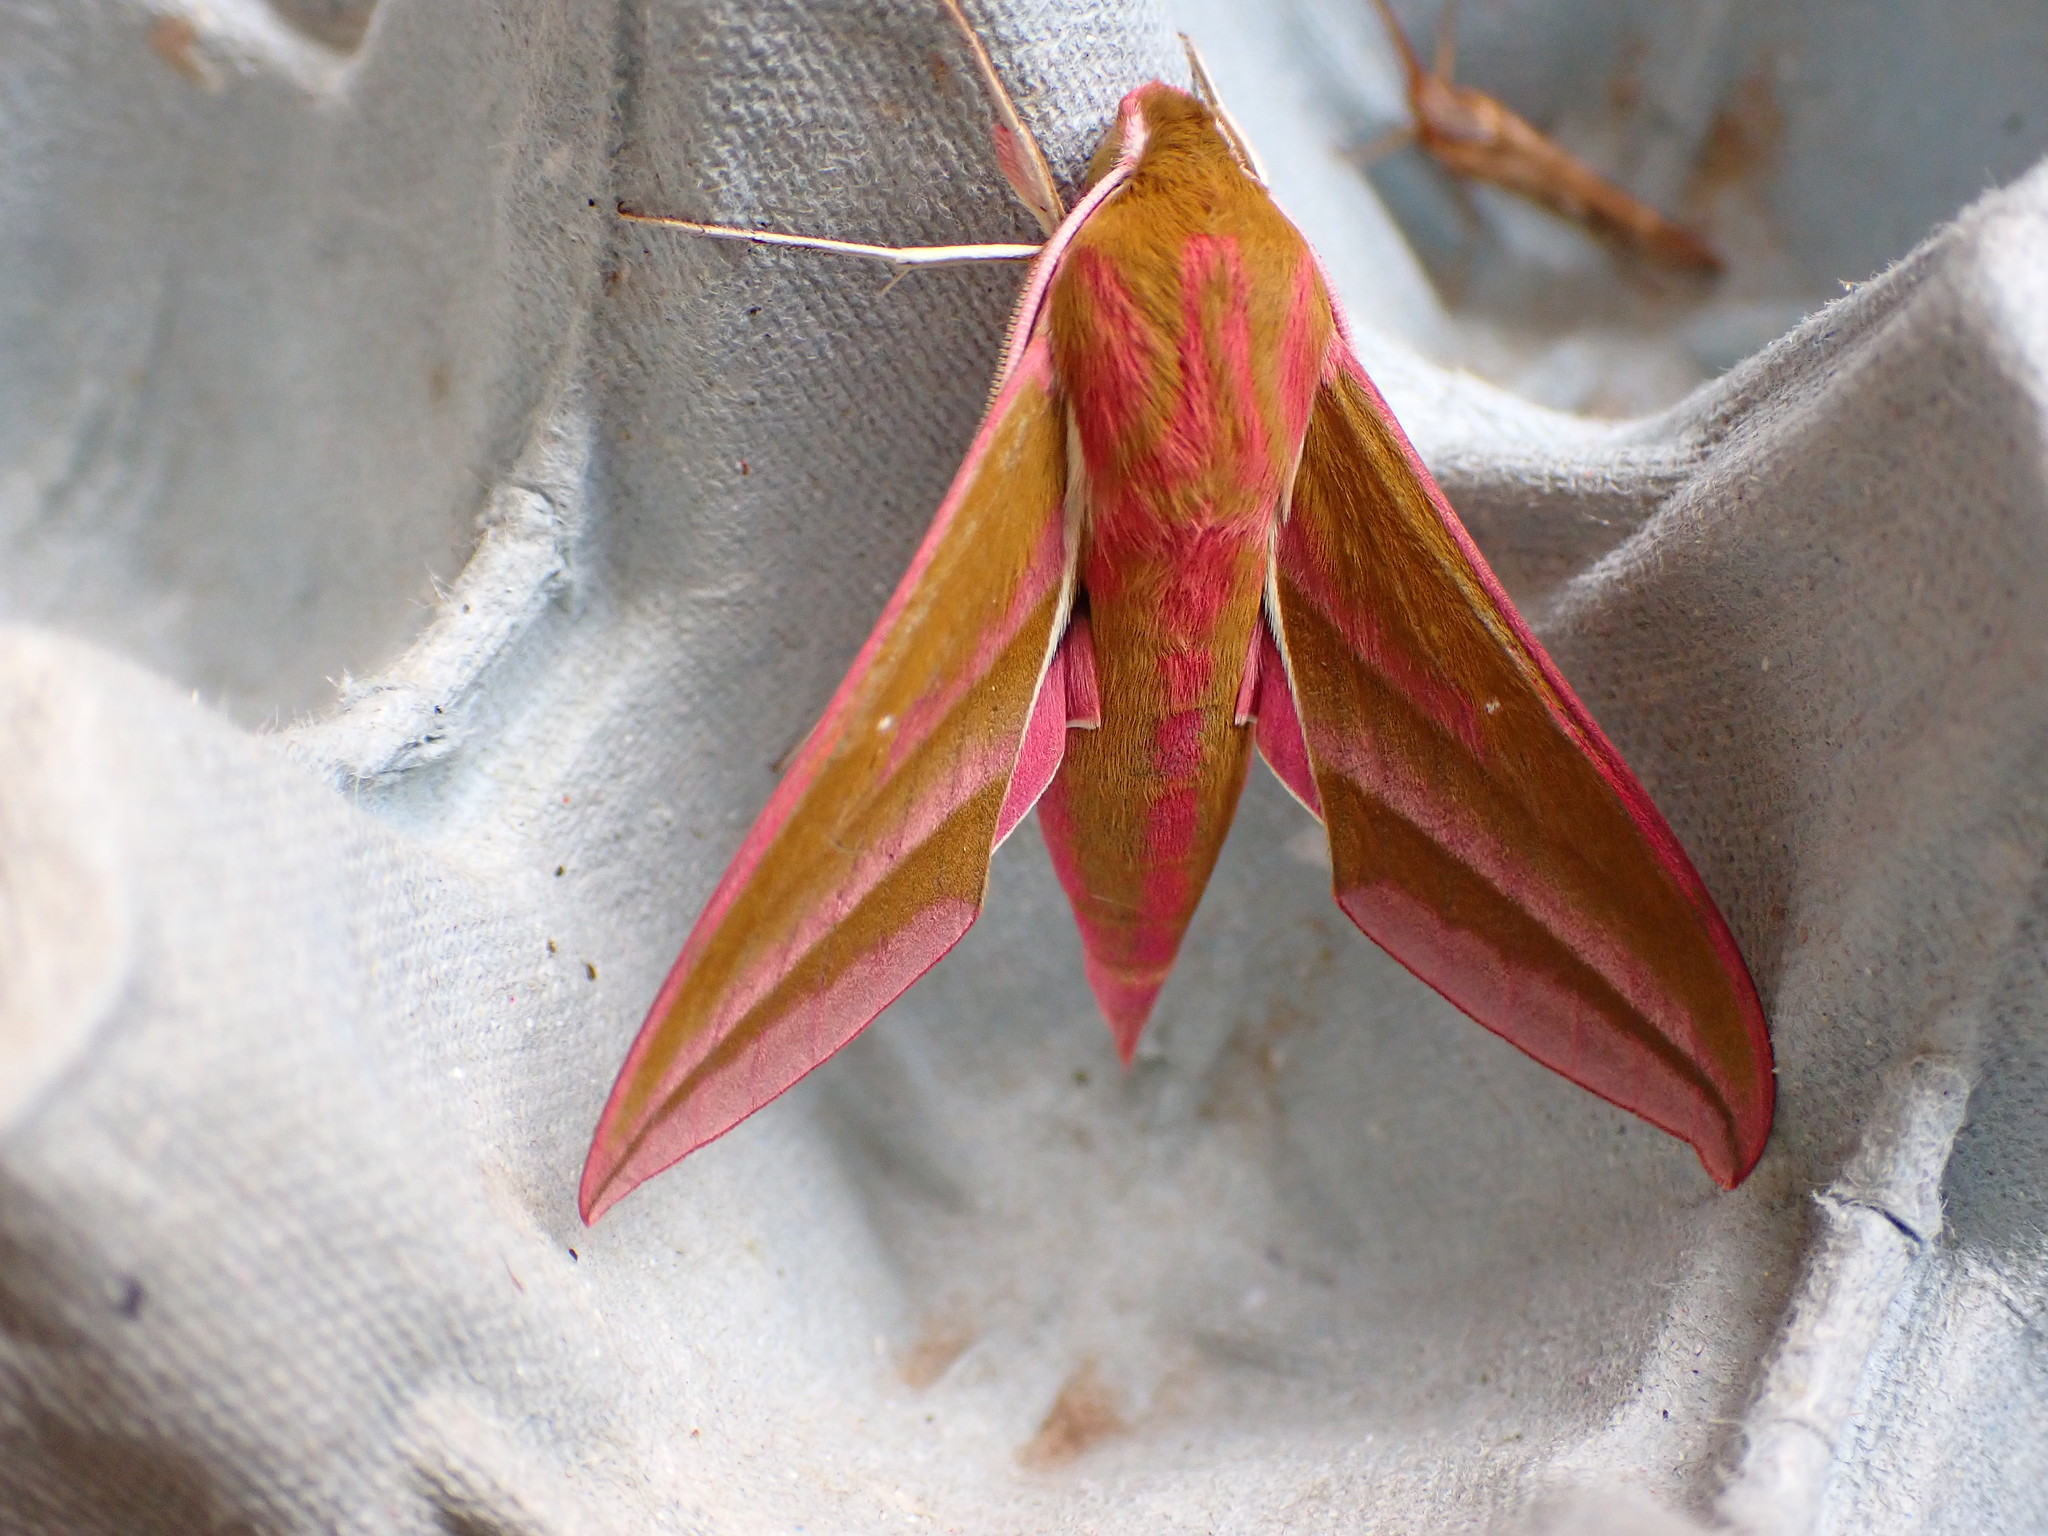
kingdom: Animalia
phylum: Arthropoda
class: Insecta
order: Lepidoptera
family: Sphingidae
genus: Deilephila
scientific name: Deilephila elpenor
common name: Elephant hawk-moth
